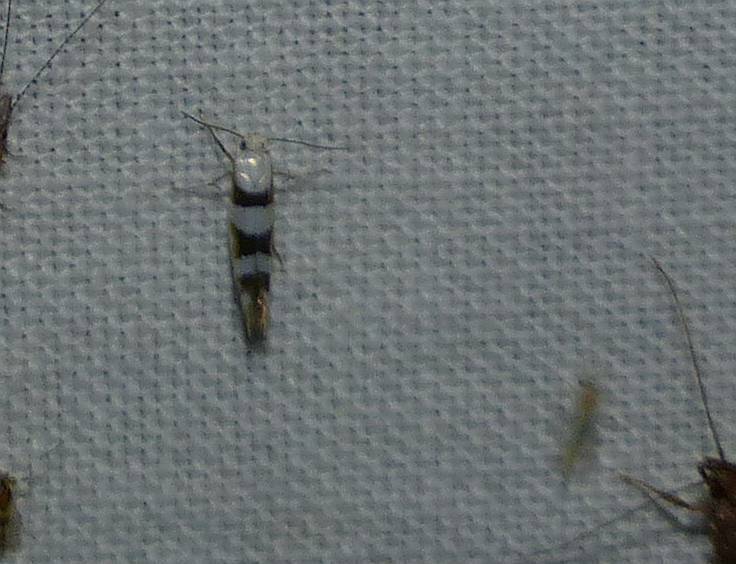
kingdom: Animalia
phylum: Arthropoda
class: Insecta
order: Lepidoptera
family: Argyresthiidae
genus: Argyresthia
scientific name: Argyresthia calliphanes
